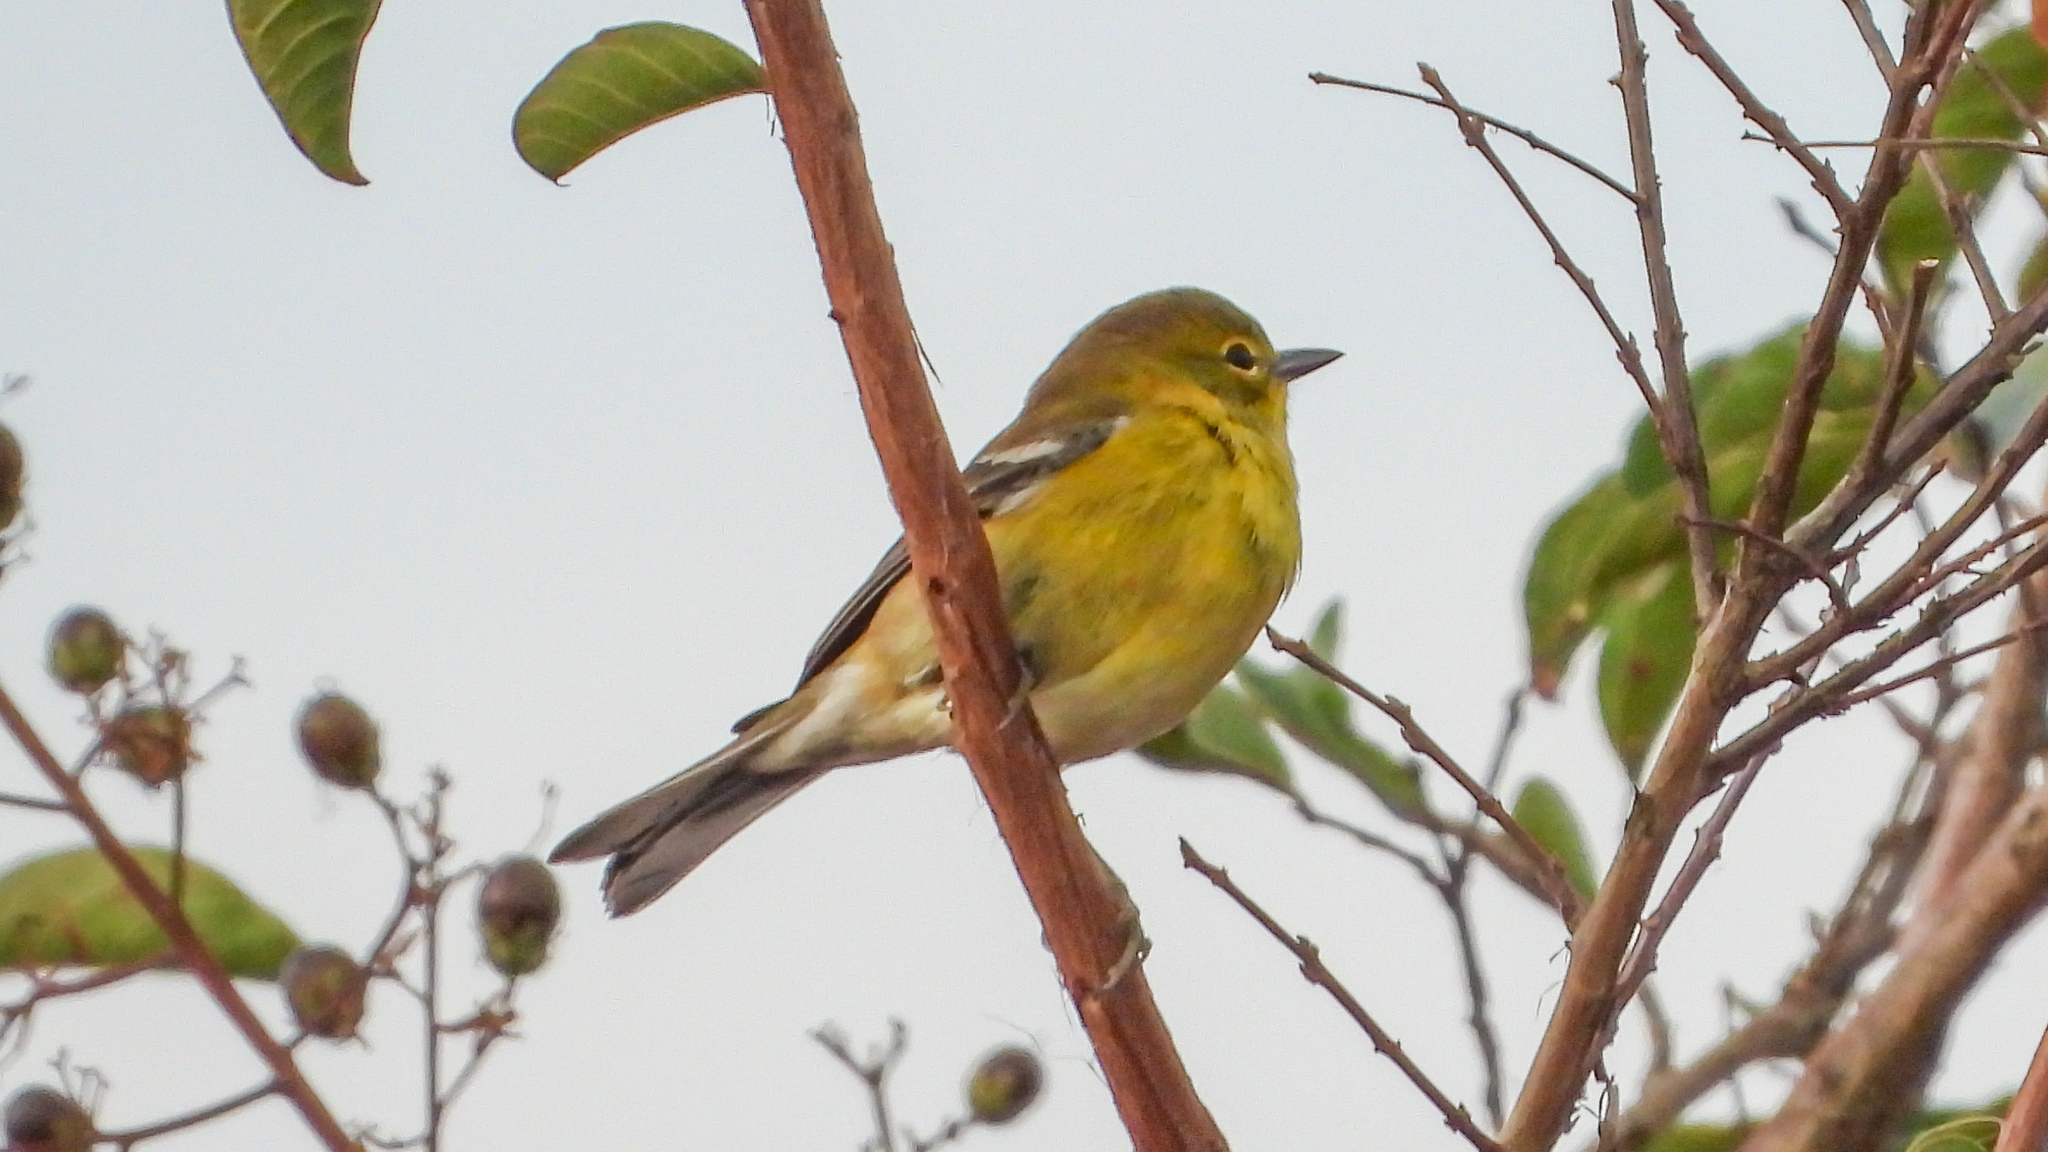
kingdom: Animalia
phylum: Chordata
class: Aves
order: Passeriformes
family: Parulidae
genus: Setophaga
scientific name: Setophaga pinus
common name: Pine warbler
